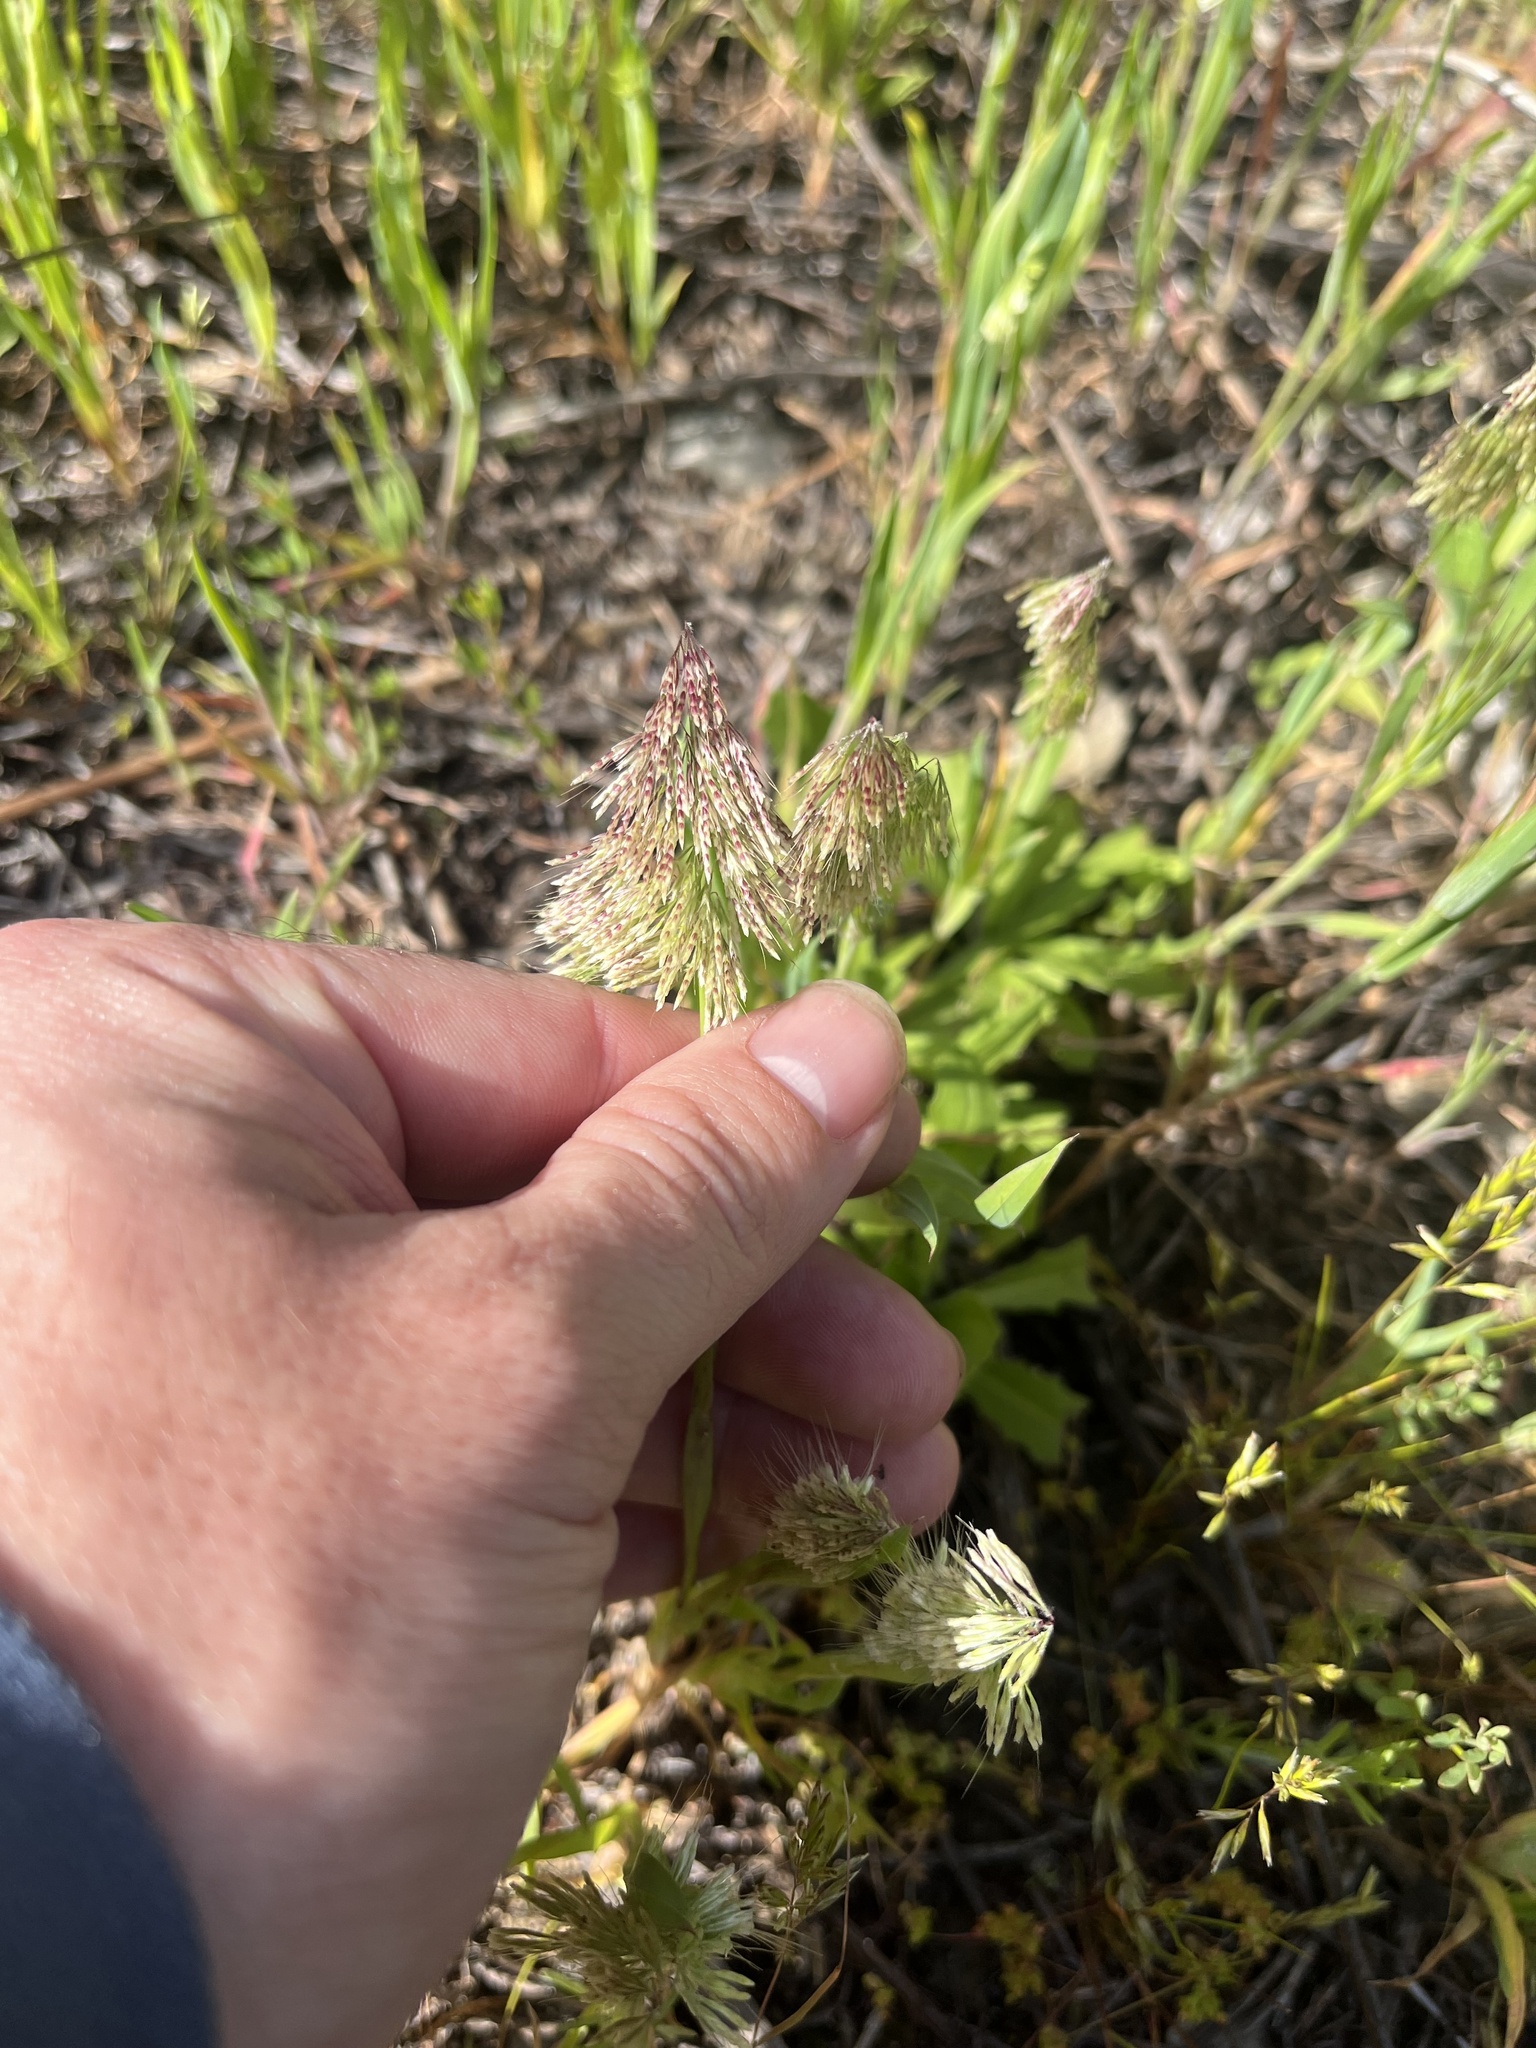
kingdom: Plantae
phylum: Tracheophyta
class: Liliopsida
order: Poales
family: Poaceae
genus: Lamarckia
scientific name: Lamarckia aurea
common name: Golden dog's-tail
